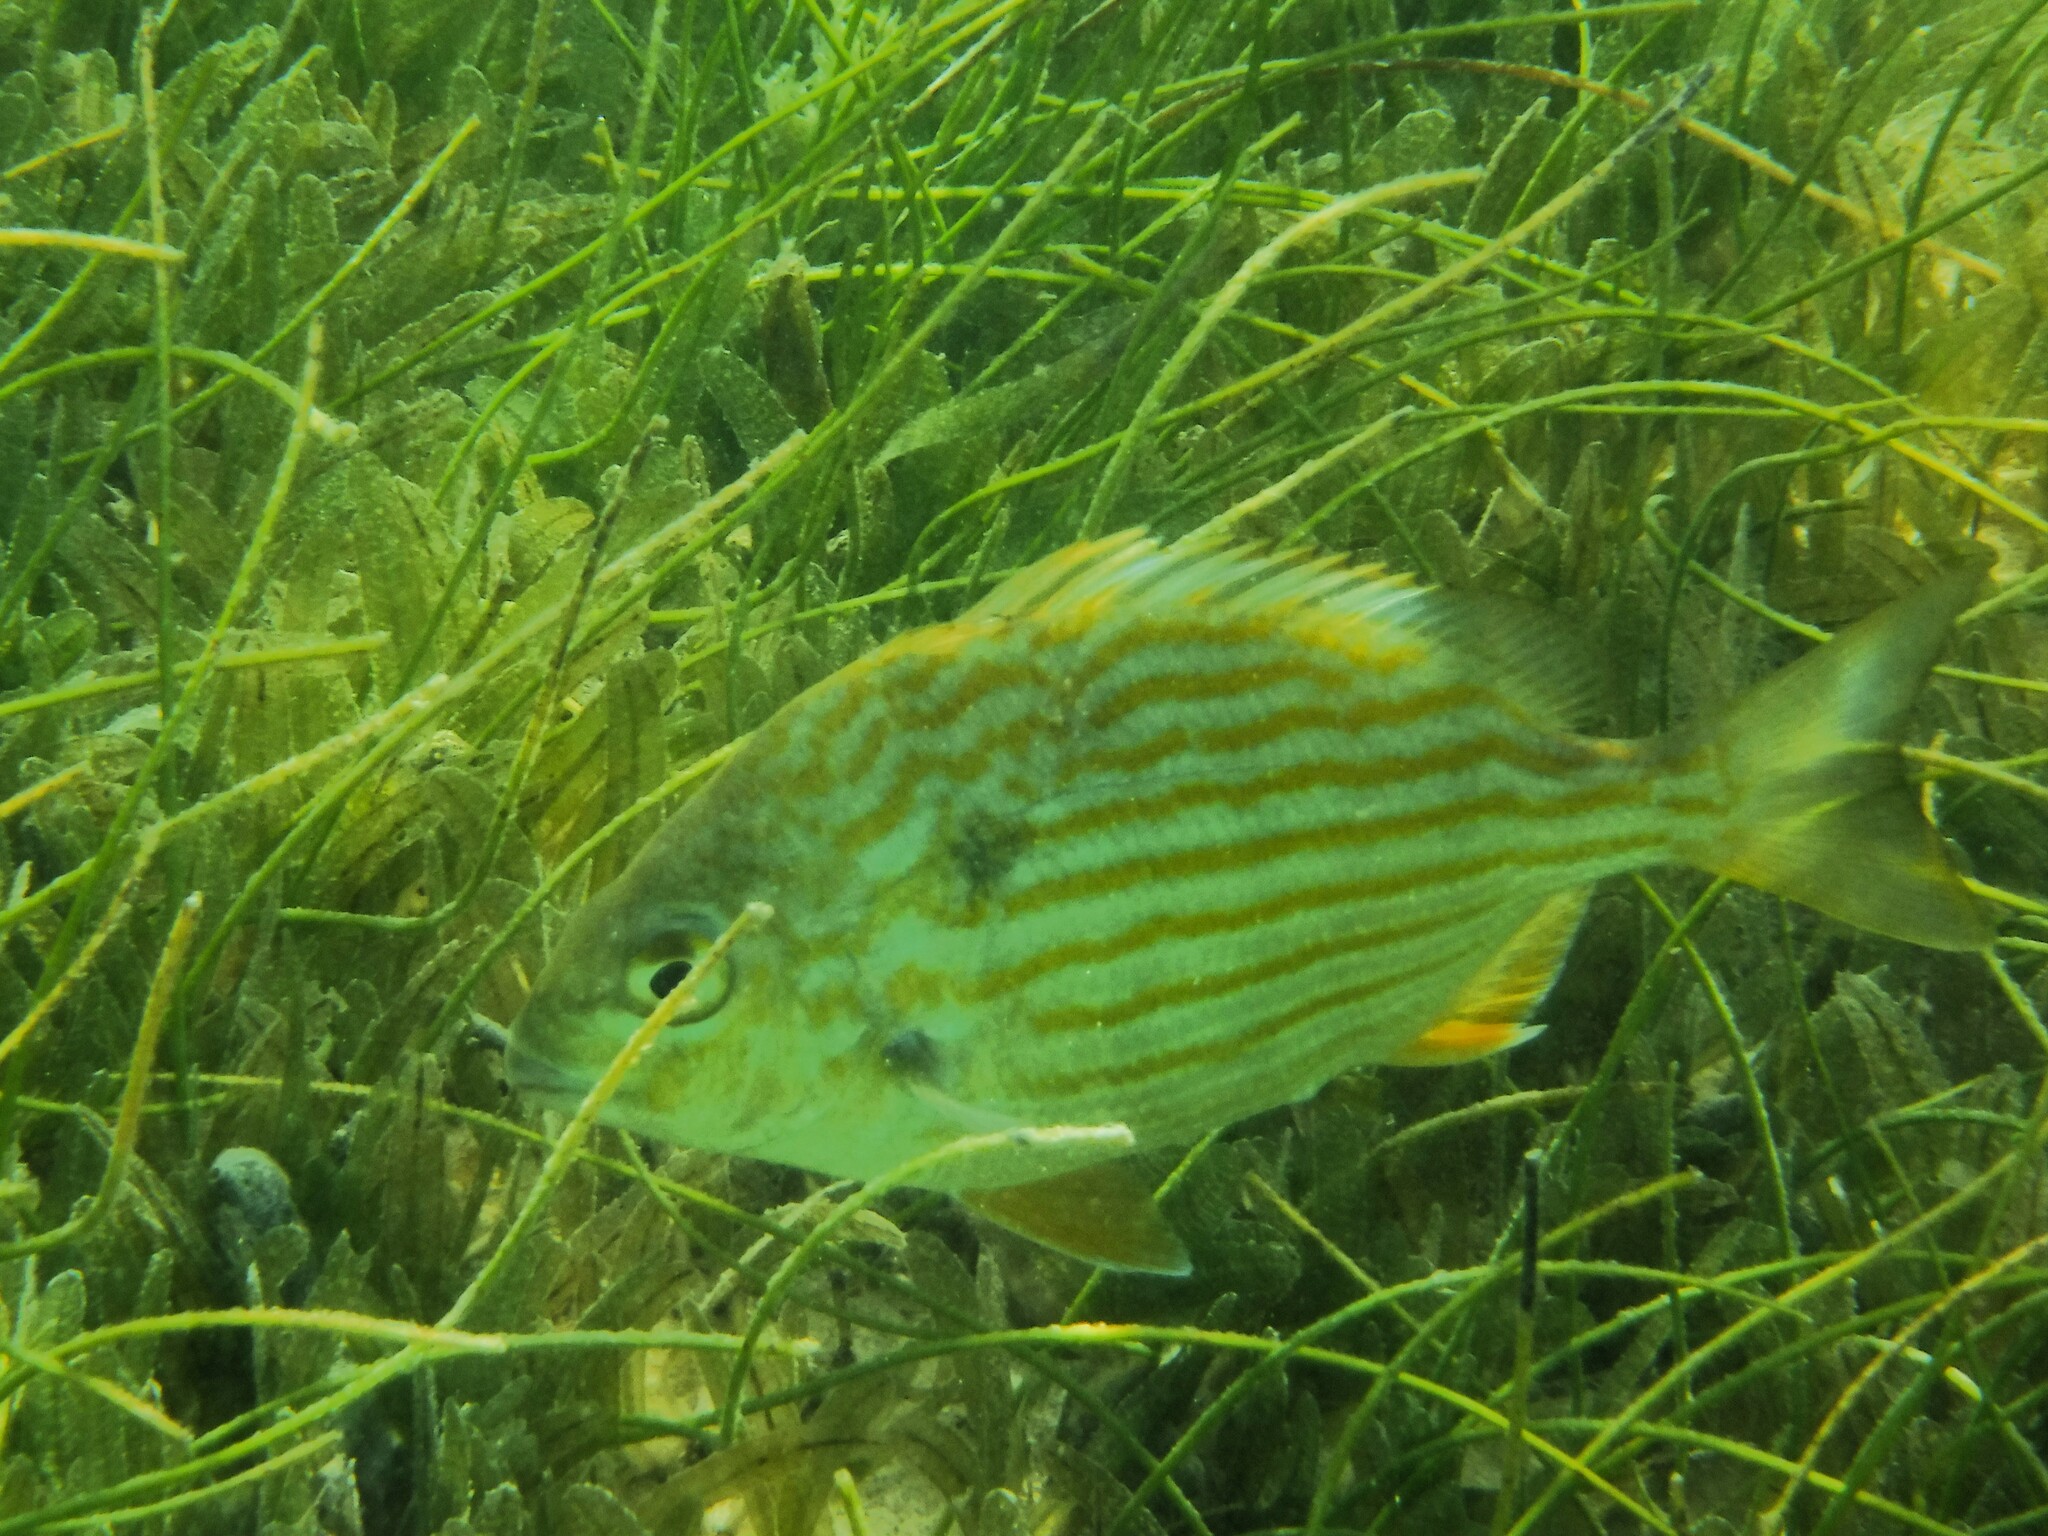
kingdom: Animalia
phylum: Chordata
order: Perciformes
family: Sparidae
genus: Archosargus
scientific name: Archosargus rhomboidalis
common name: Sea bream
